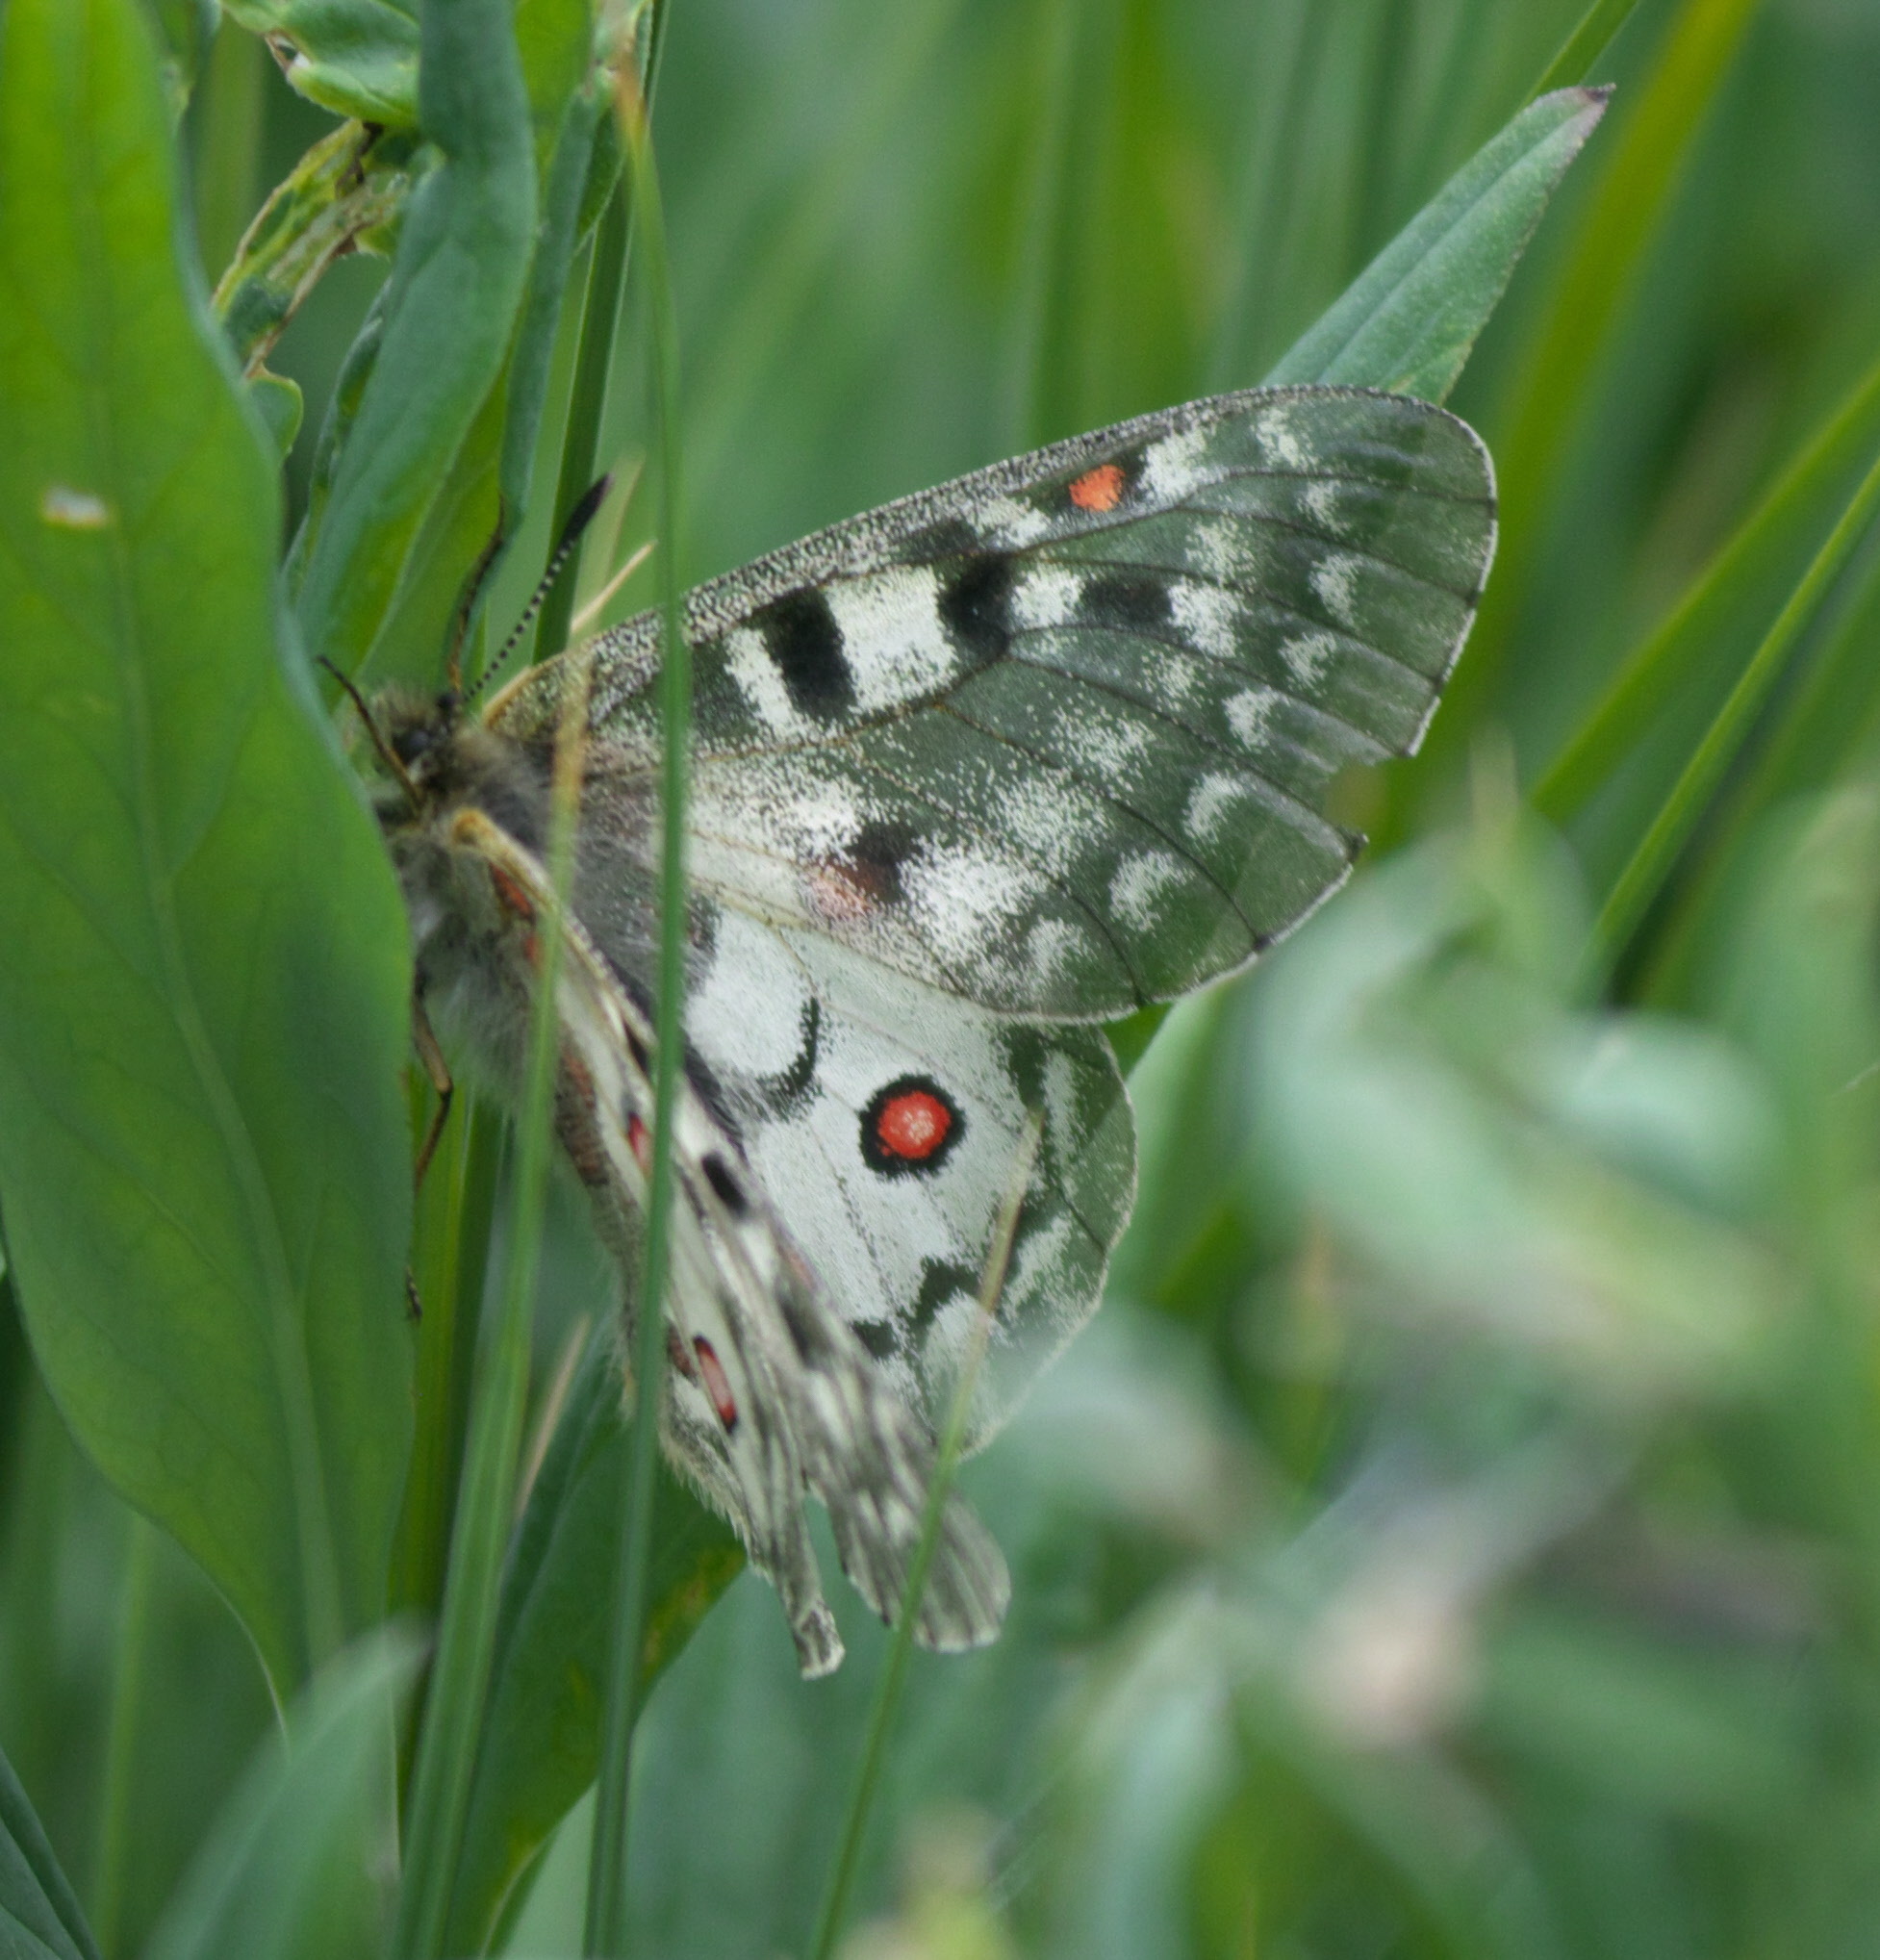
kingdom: Animalia
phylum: Arthropoda
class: Insecta
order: Lepidoptera
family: Papilionidae
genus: Parnassius
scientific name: Parnassius smintheus
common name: Mountain parnassian
